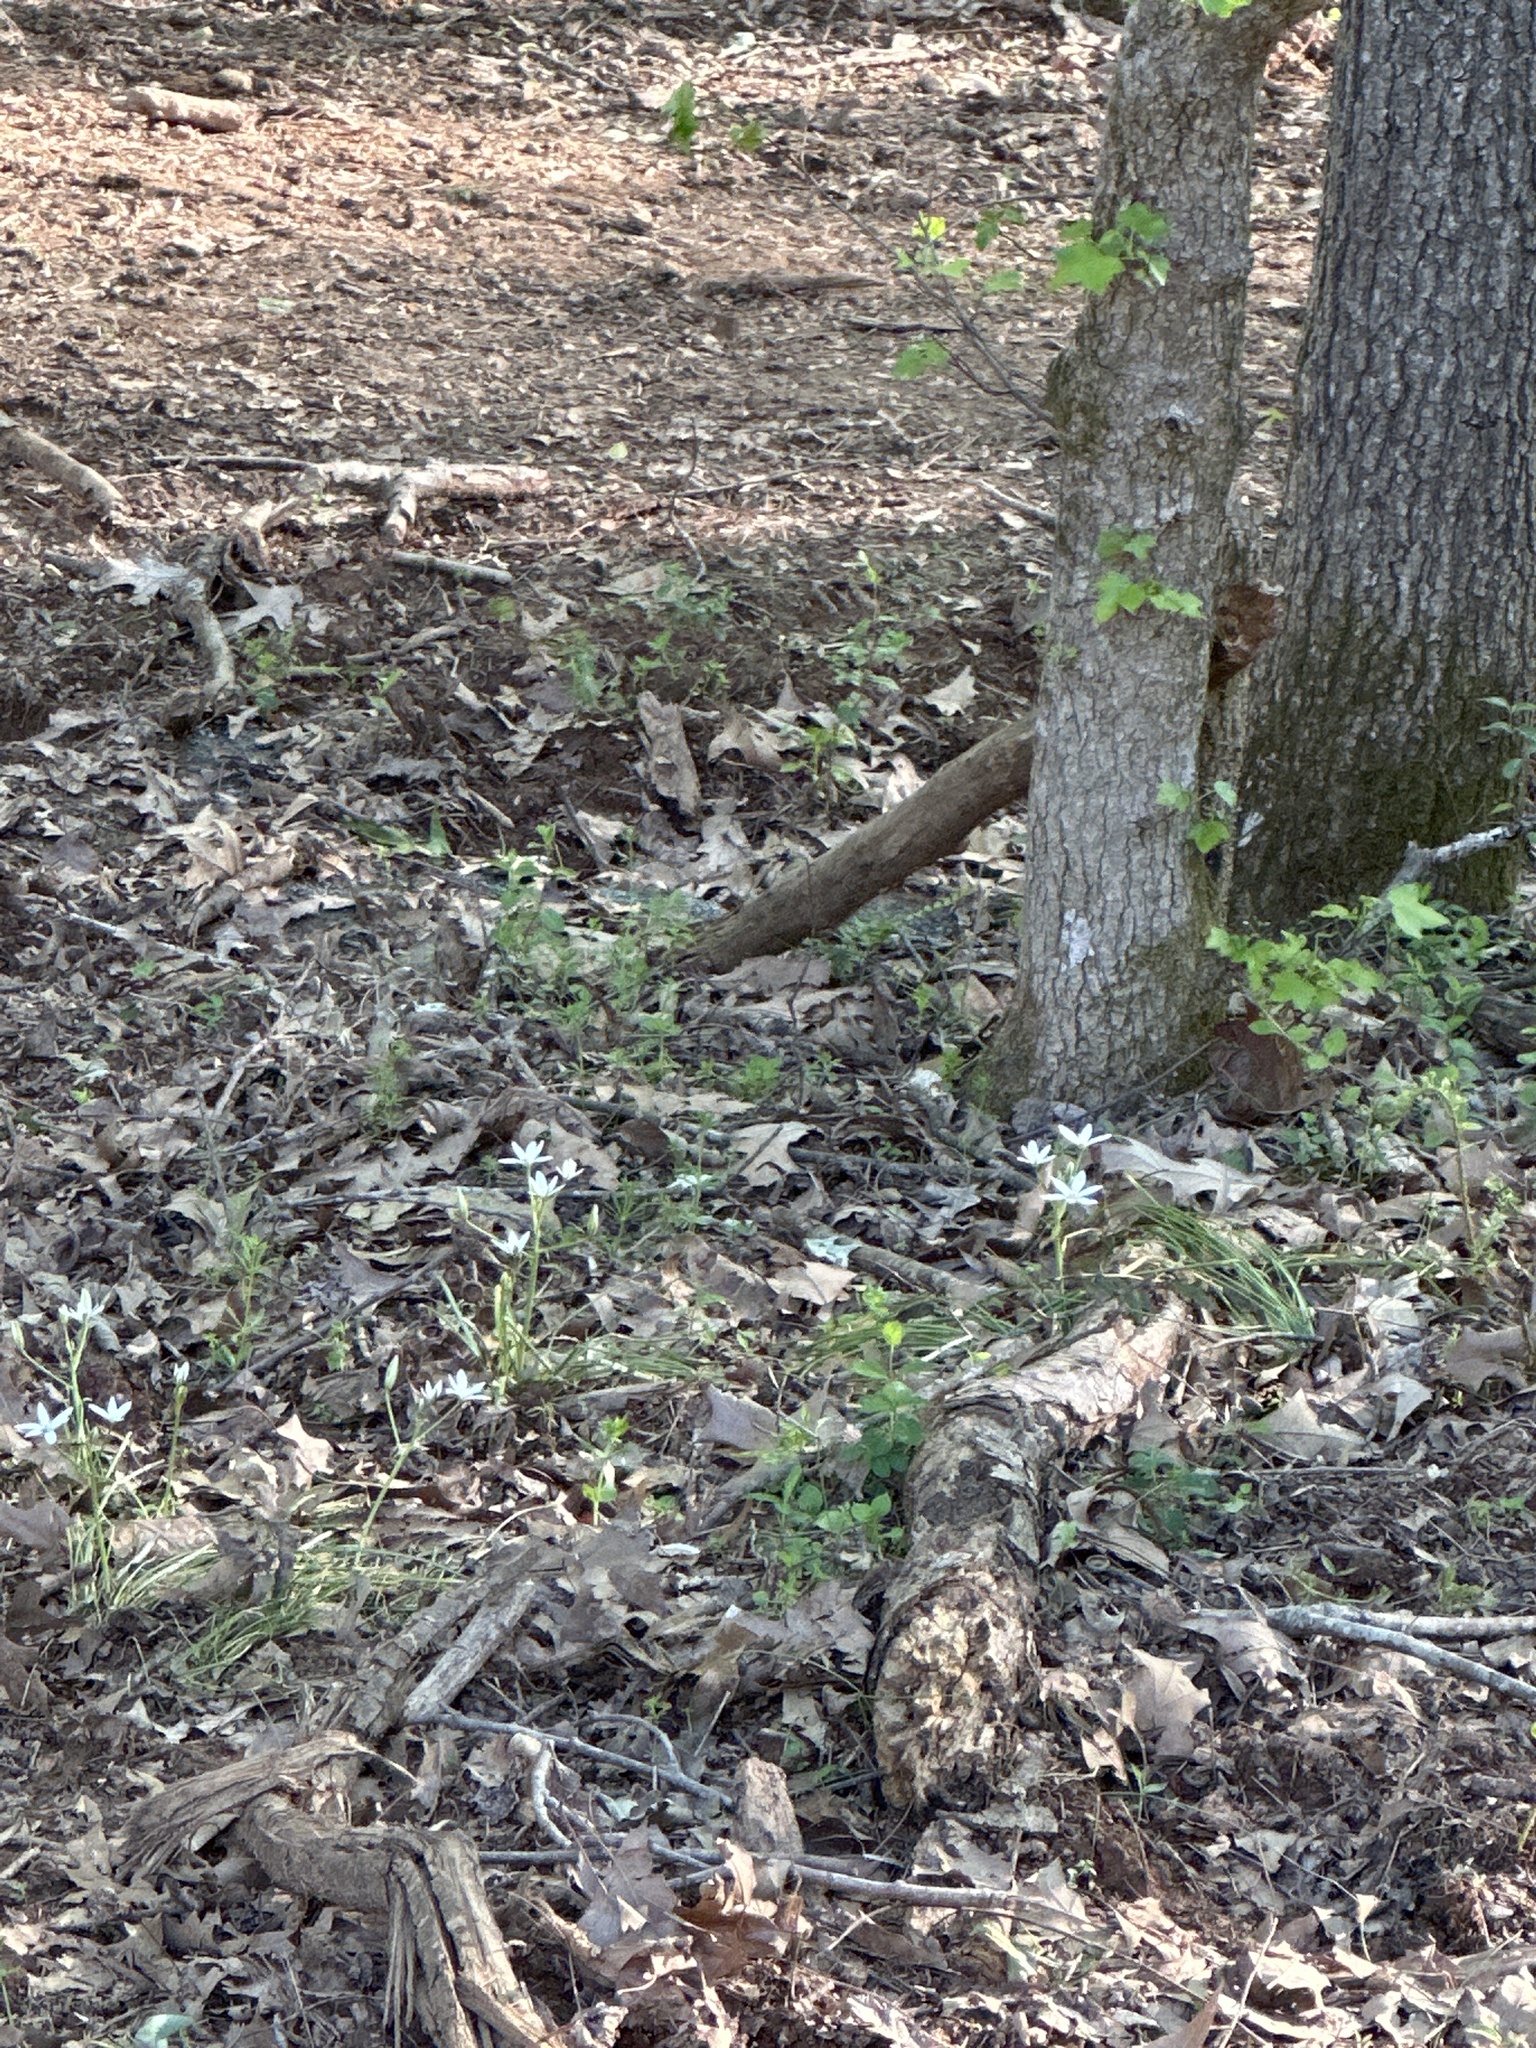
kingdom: Plantae
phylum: Tracheophyta
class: Liliopsida
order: Asparagales
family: Asparagaceae
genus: Ornithogalum
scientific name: Ornithogalum umbellatum
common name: Garden star-of-bethlehem
